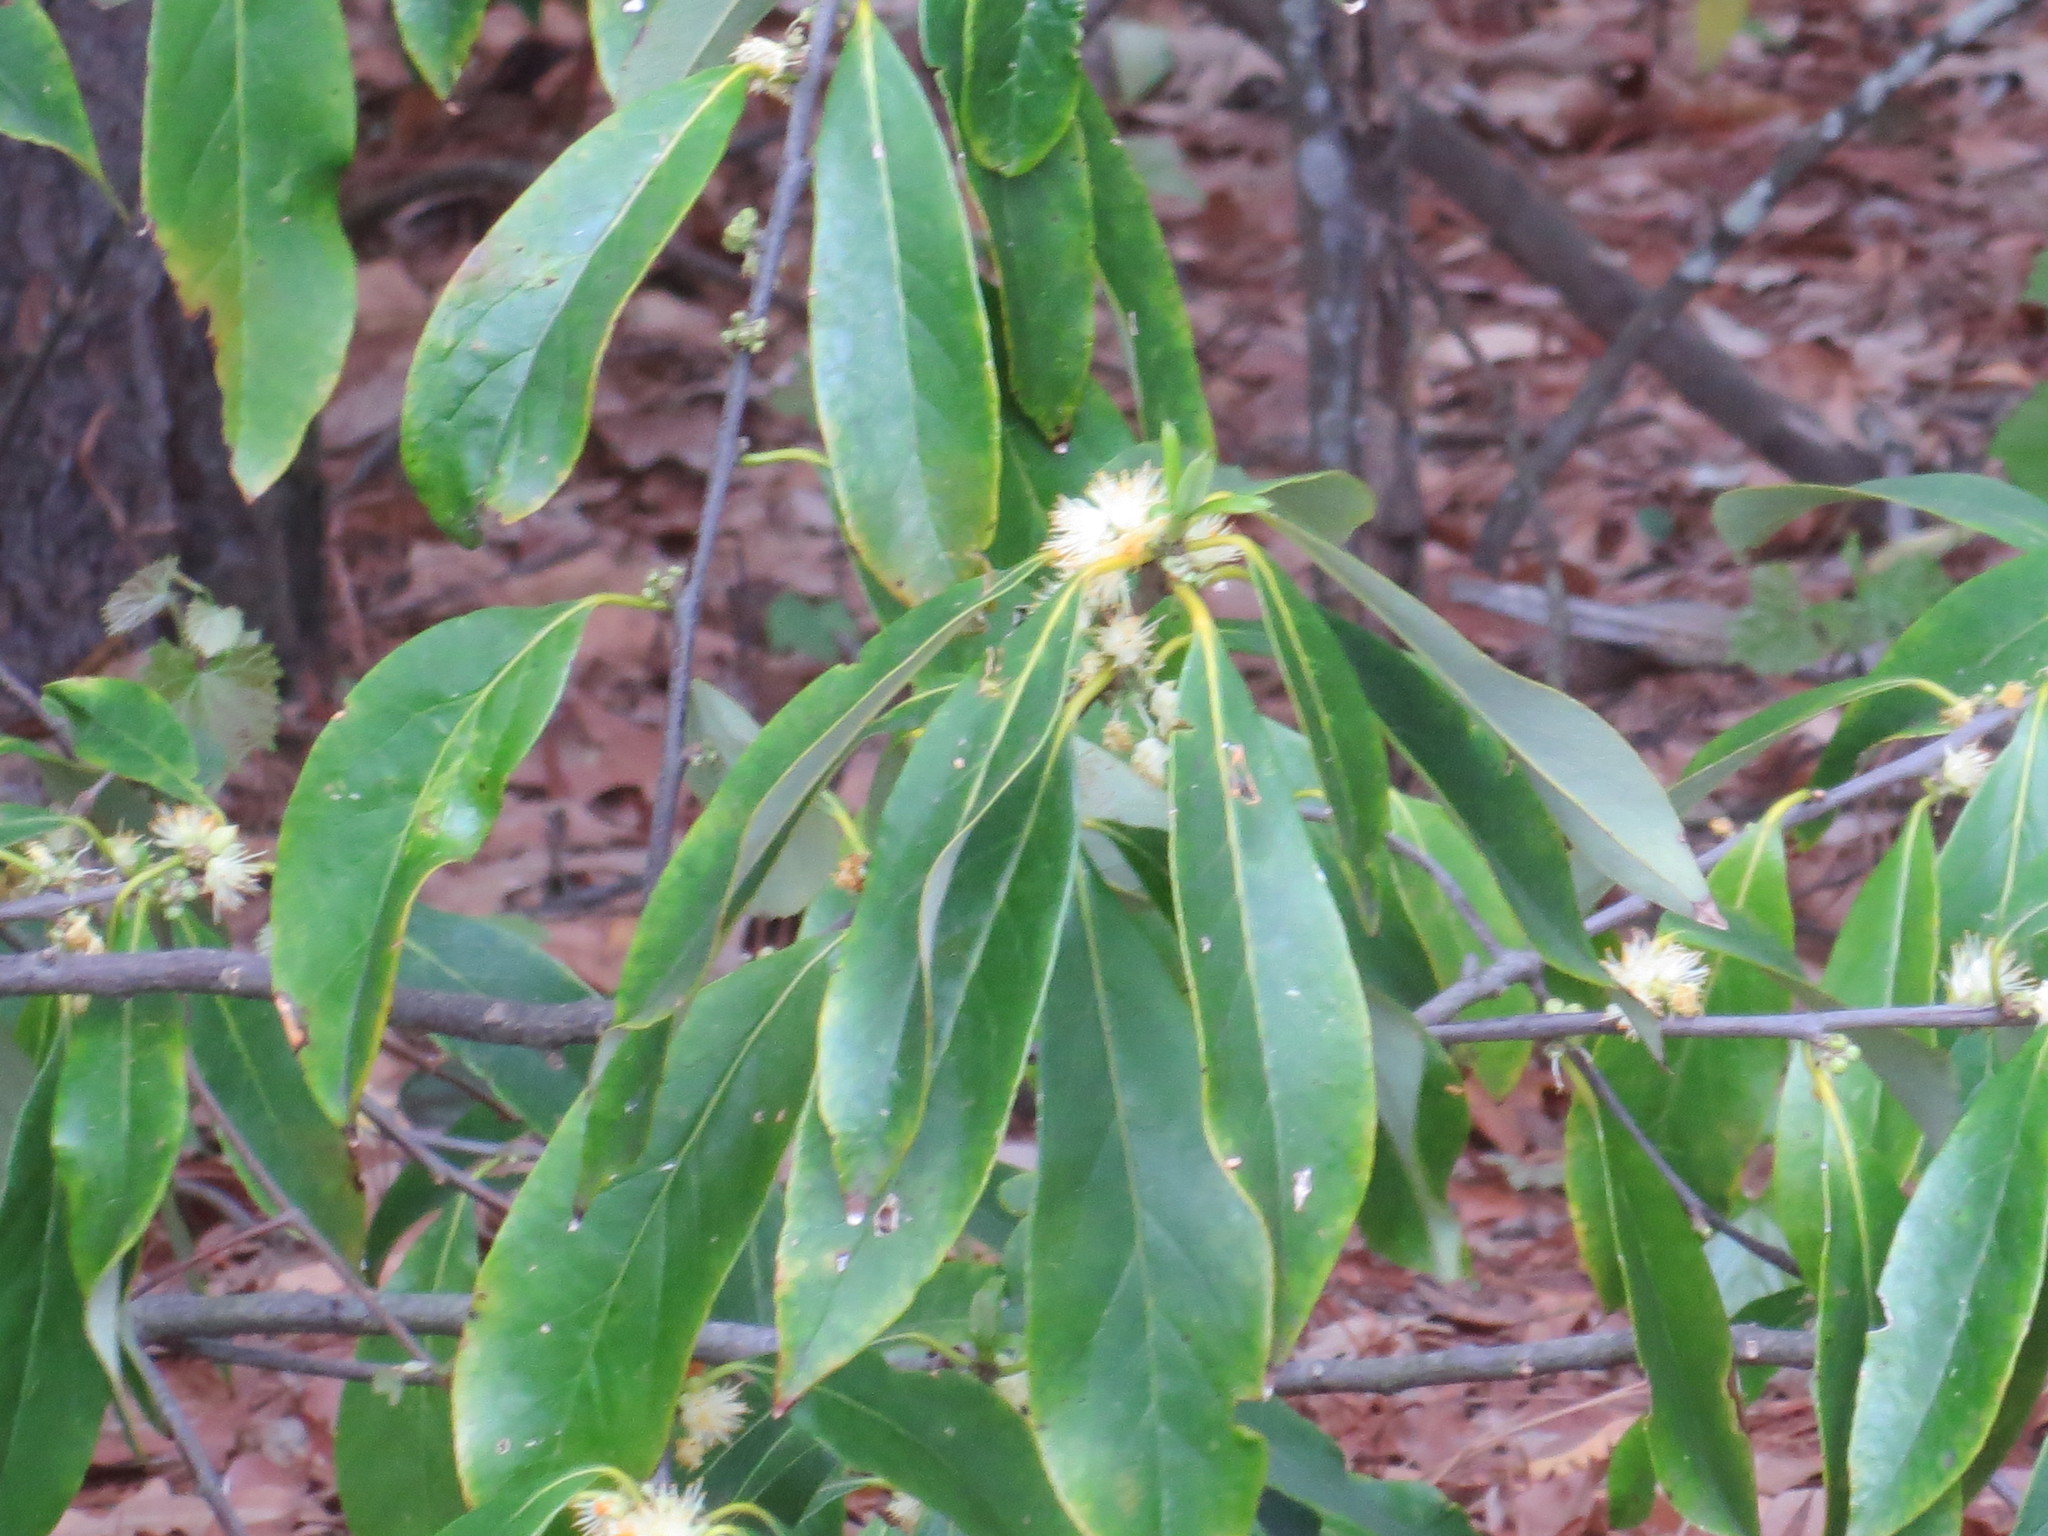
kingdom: Plantae
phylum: Tracheophyta
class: Magnoliopsida
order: Ericales
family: Symplocaceae
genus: Symplocos
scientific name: Symplocos tinctoria
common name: Horse-sugar
